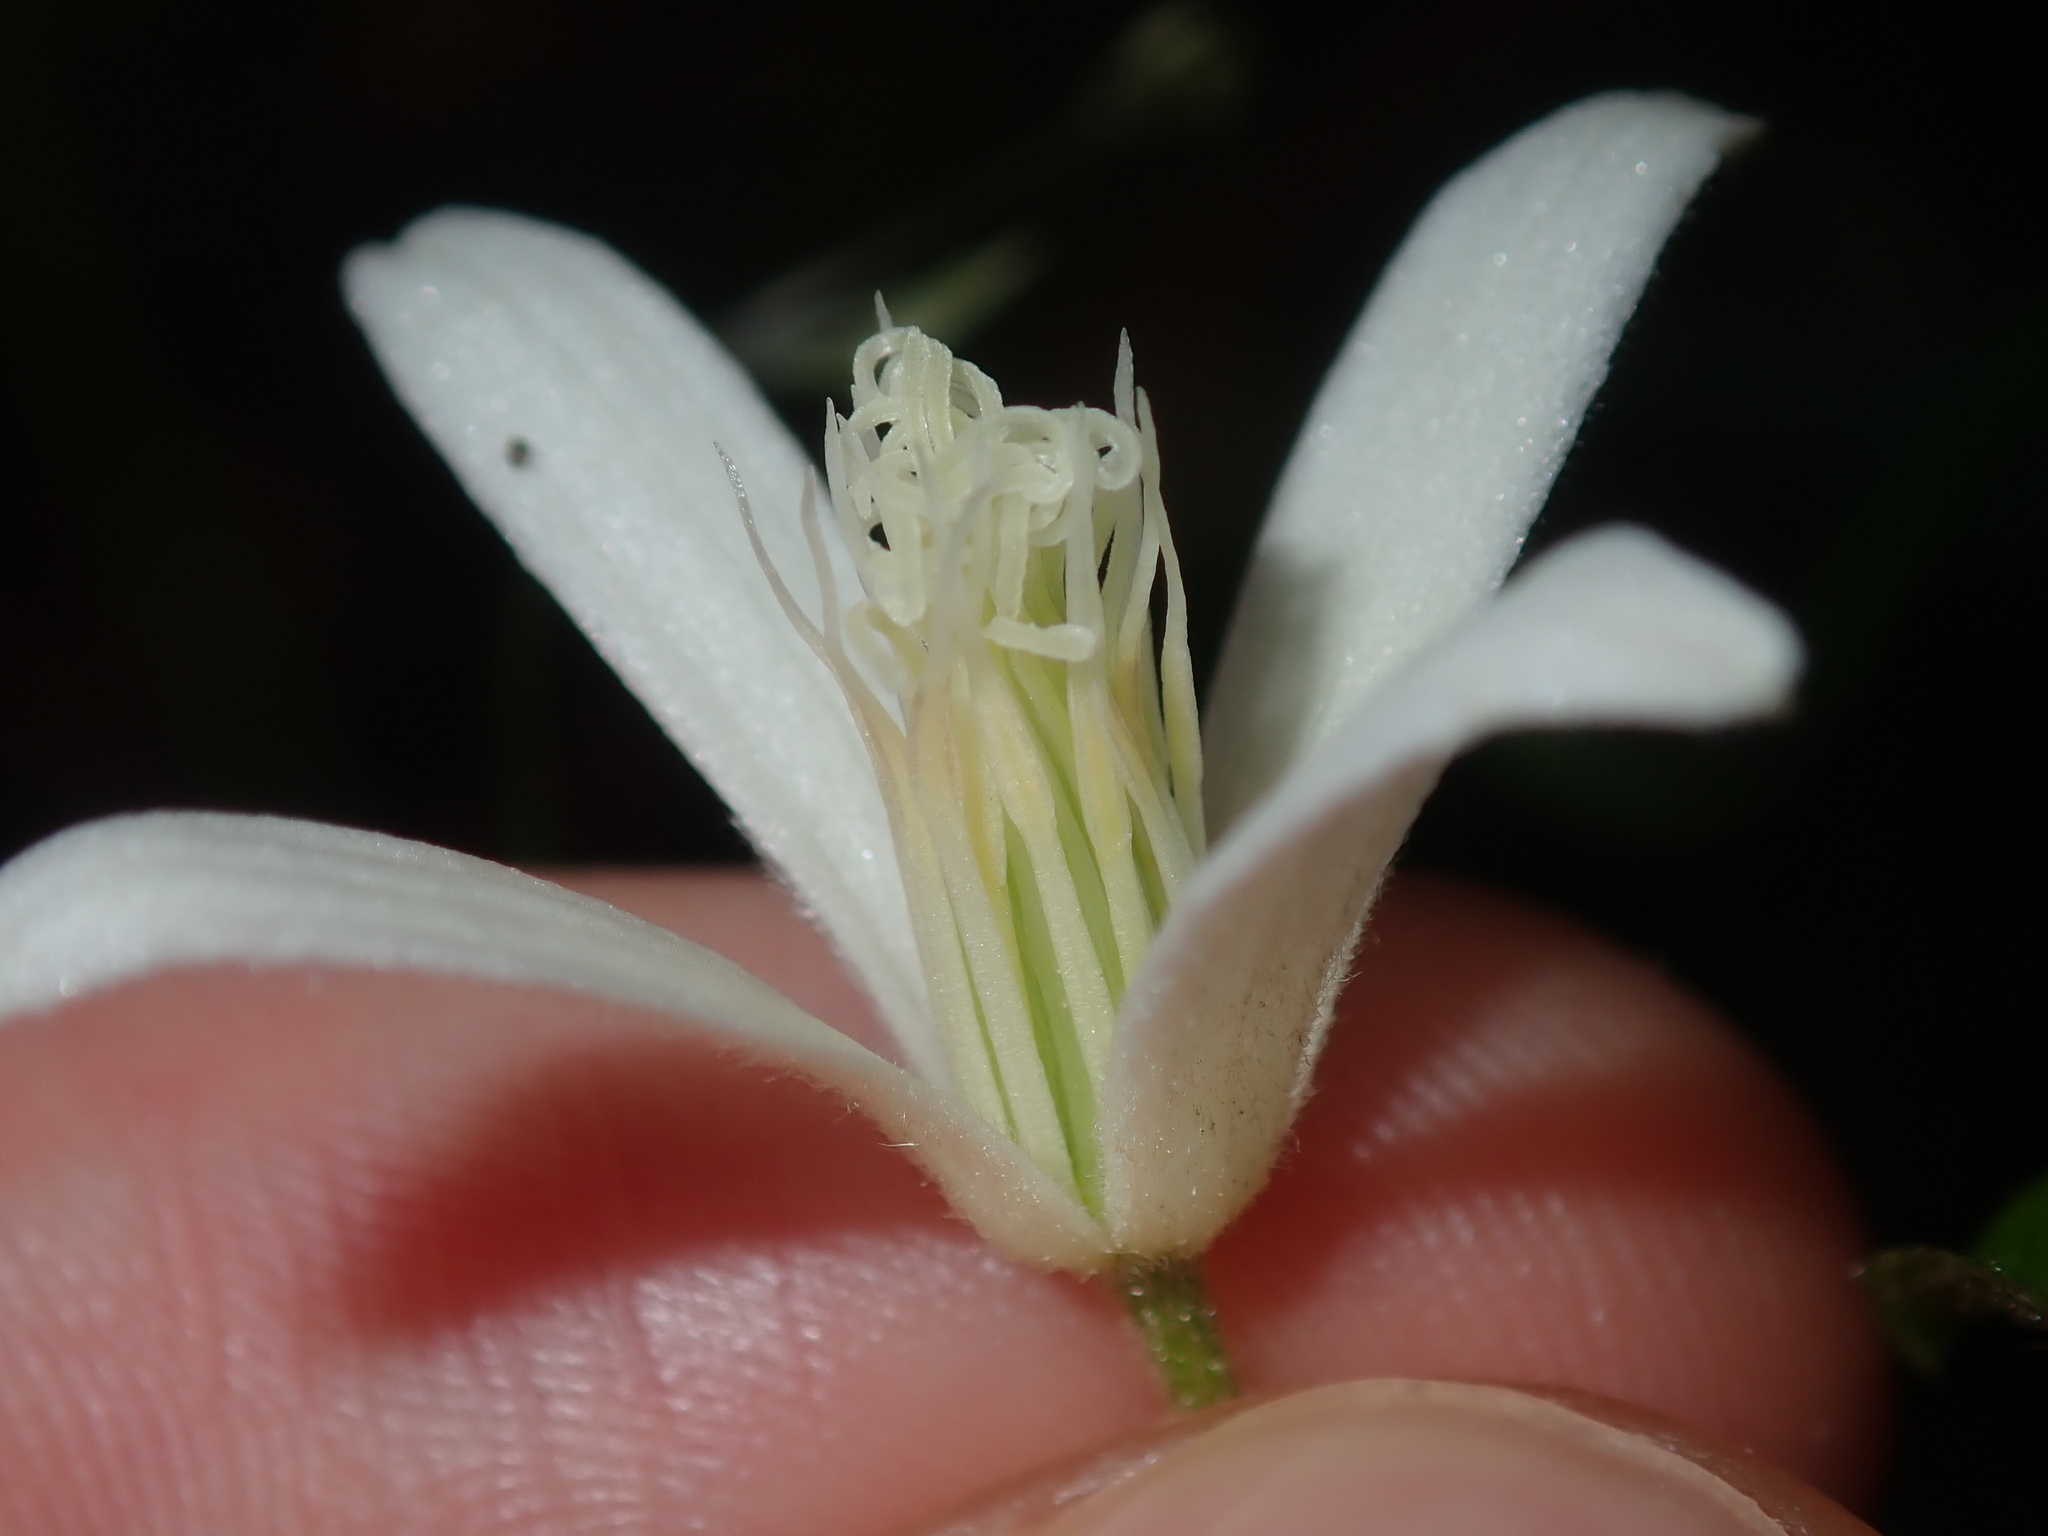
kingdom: Plantae
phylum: Tracheophyta
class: Magnoliopsida
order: Ranunculales
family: Ranunculaceae
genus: Clematis
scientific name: Clematis aristata
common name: Mountain clematis
